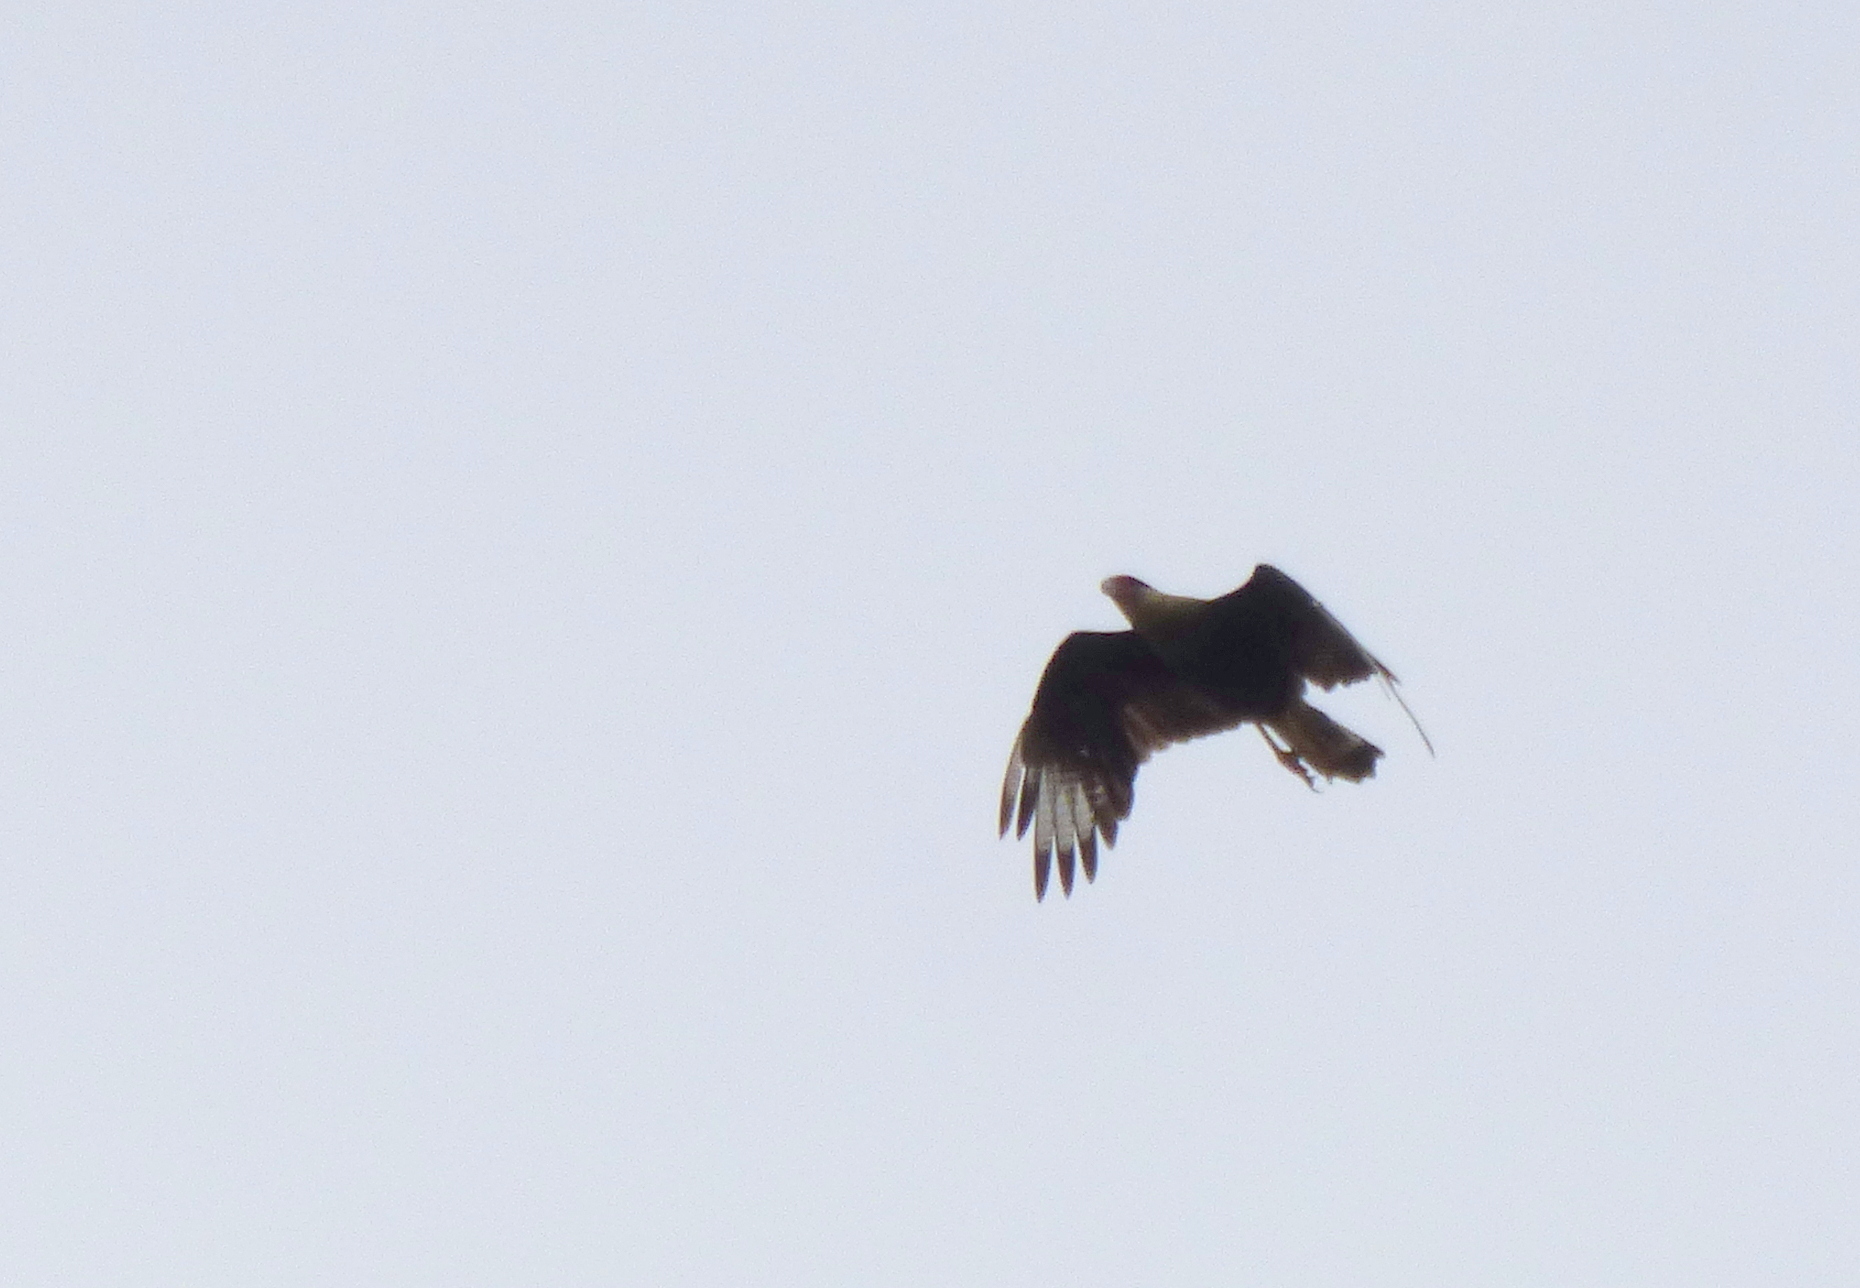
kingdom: Animalia
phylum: Chordata
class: Aves
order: Falconiformes
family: Falconidae
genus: Caracara
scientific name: Caracara plancus
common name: Southern caracara
